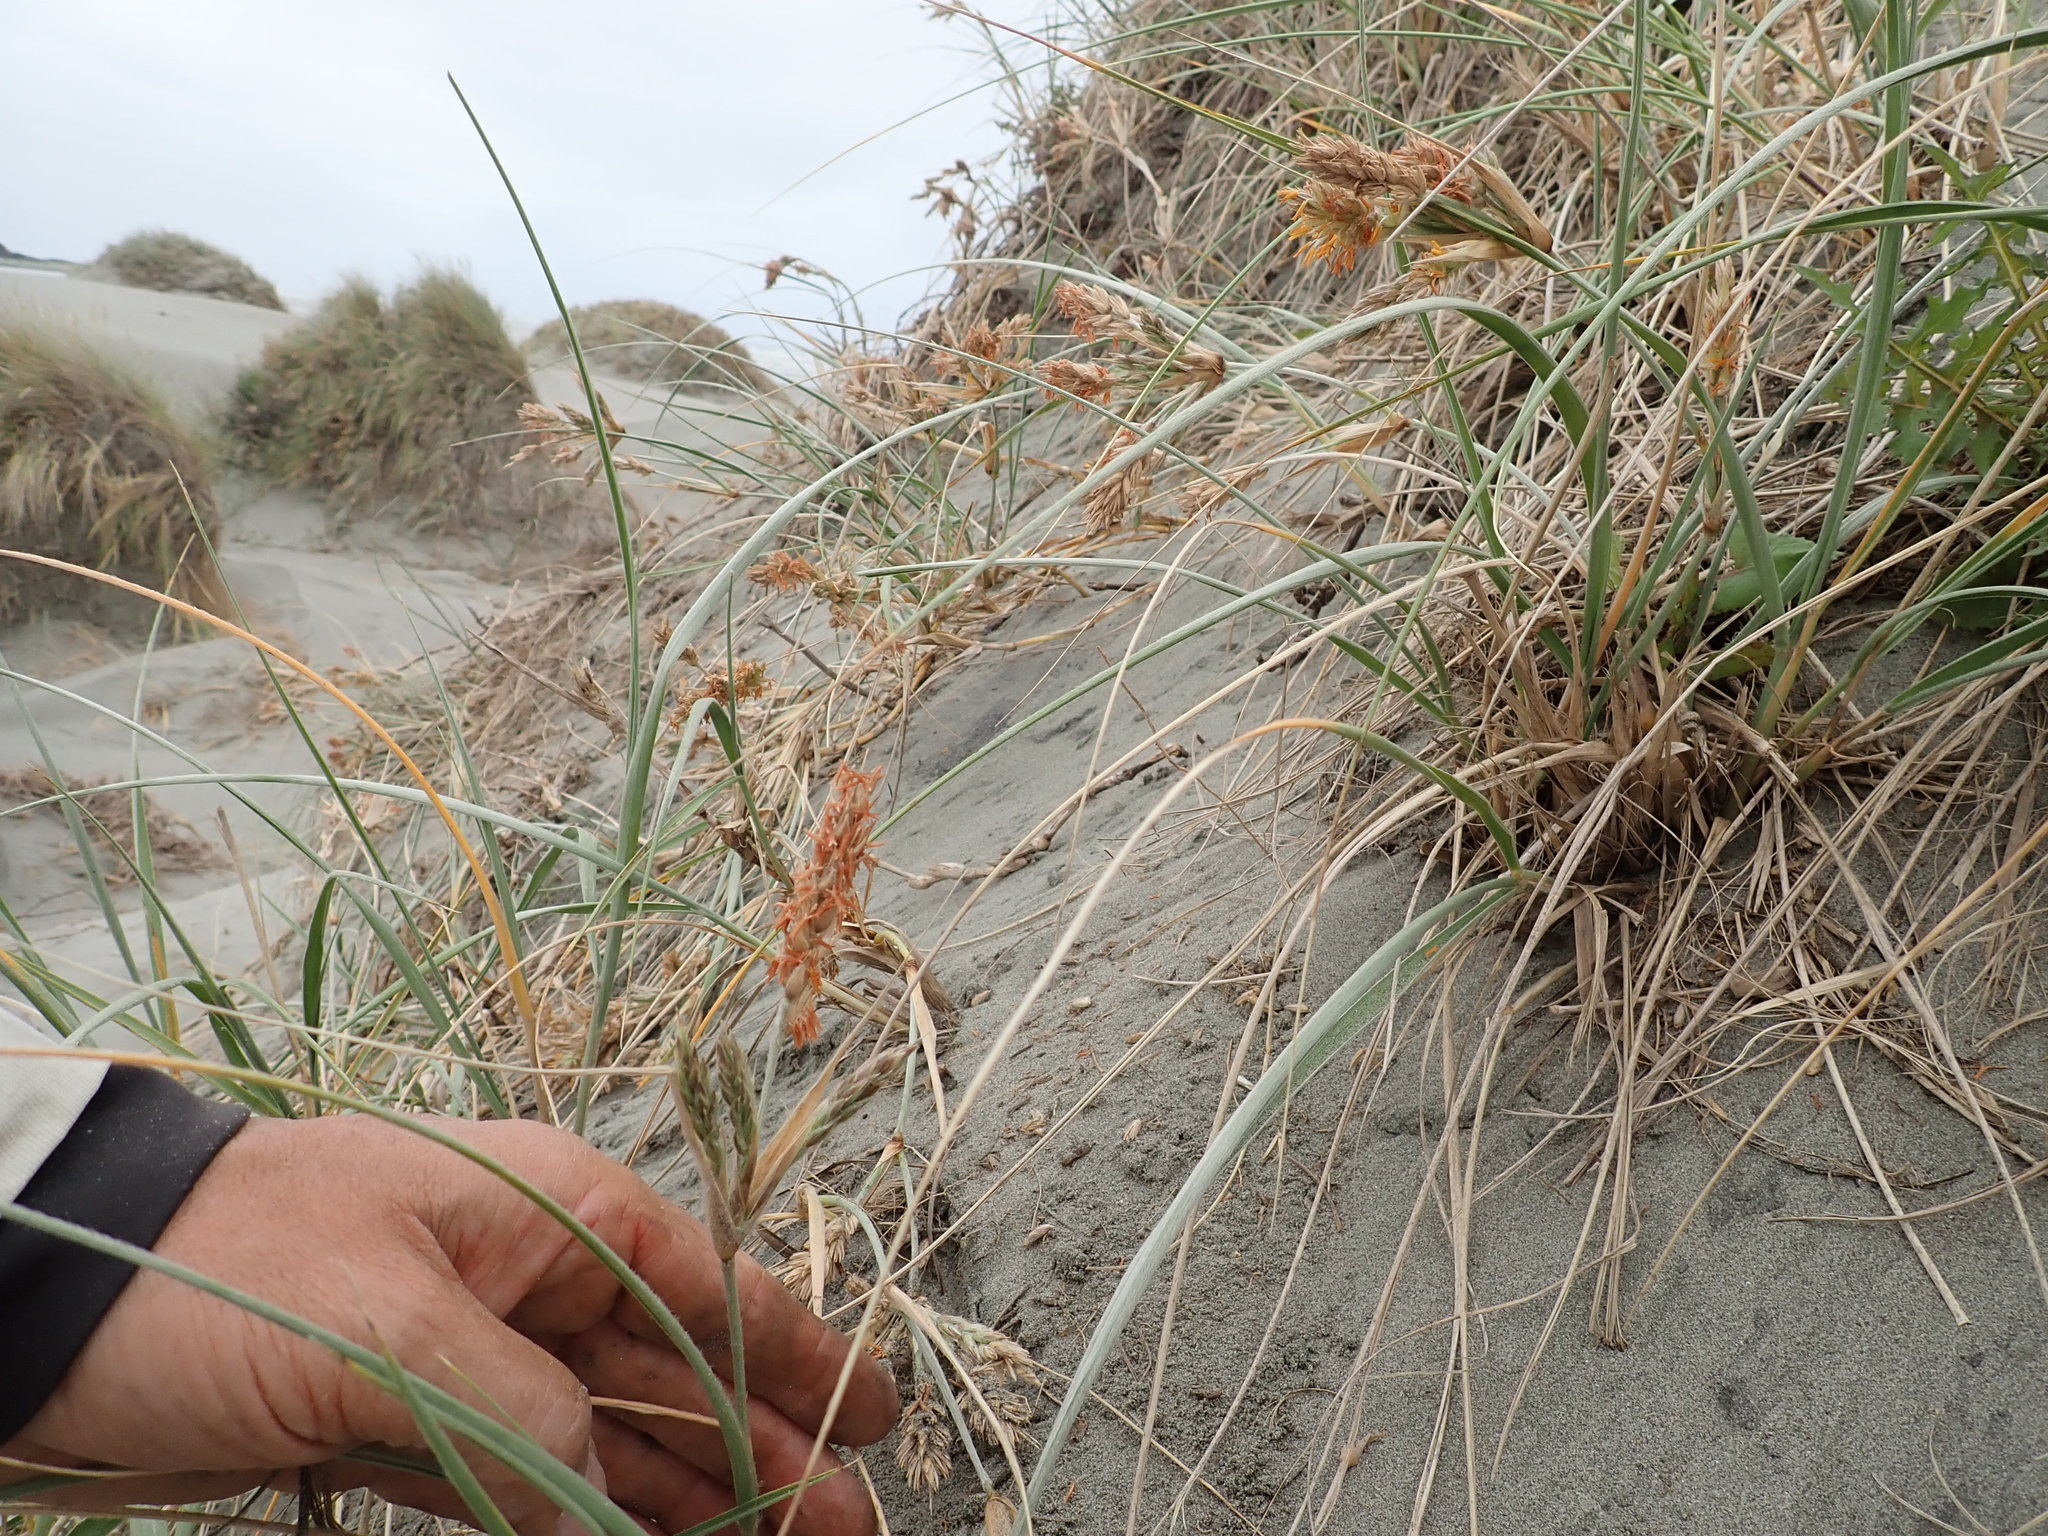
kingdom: Plantae
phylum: Tracheophyta
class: Liliopsida
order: Poales
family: Poaceae
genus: Spinifex
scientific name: Spinifex sericeus
